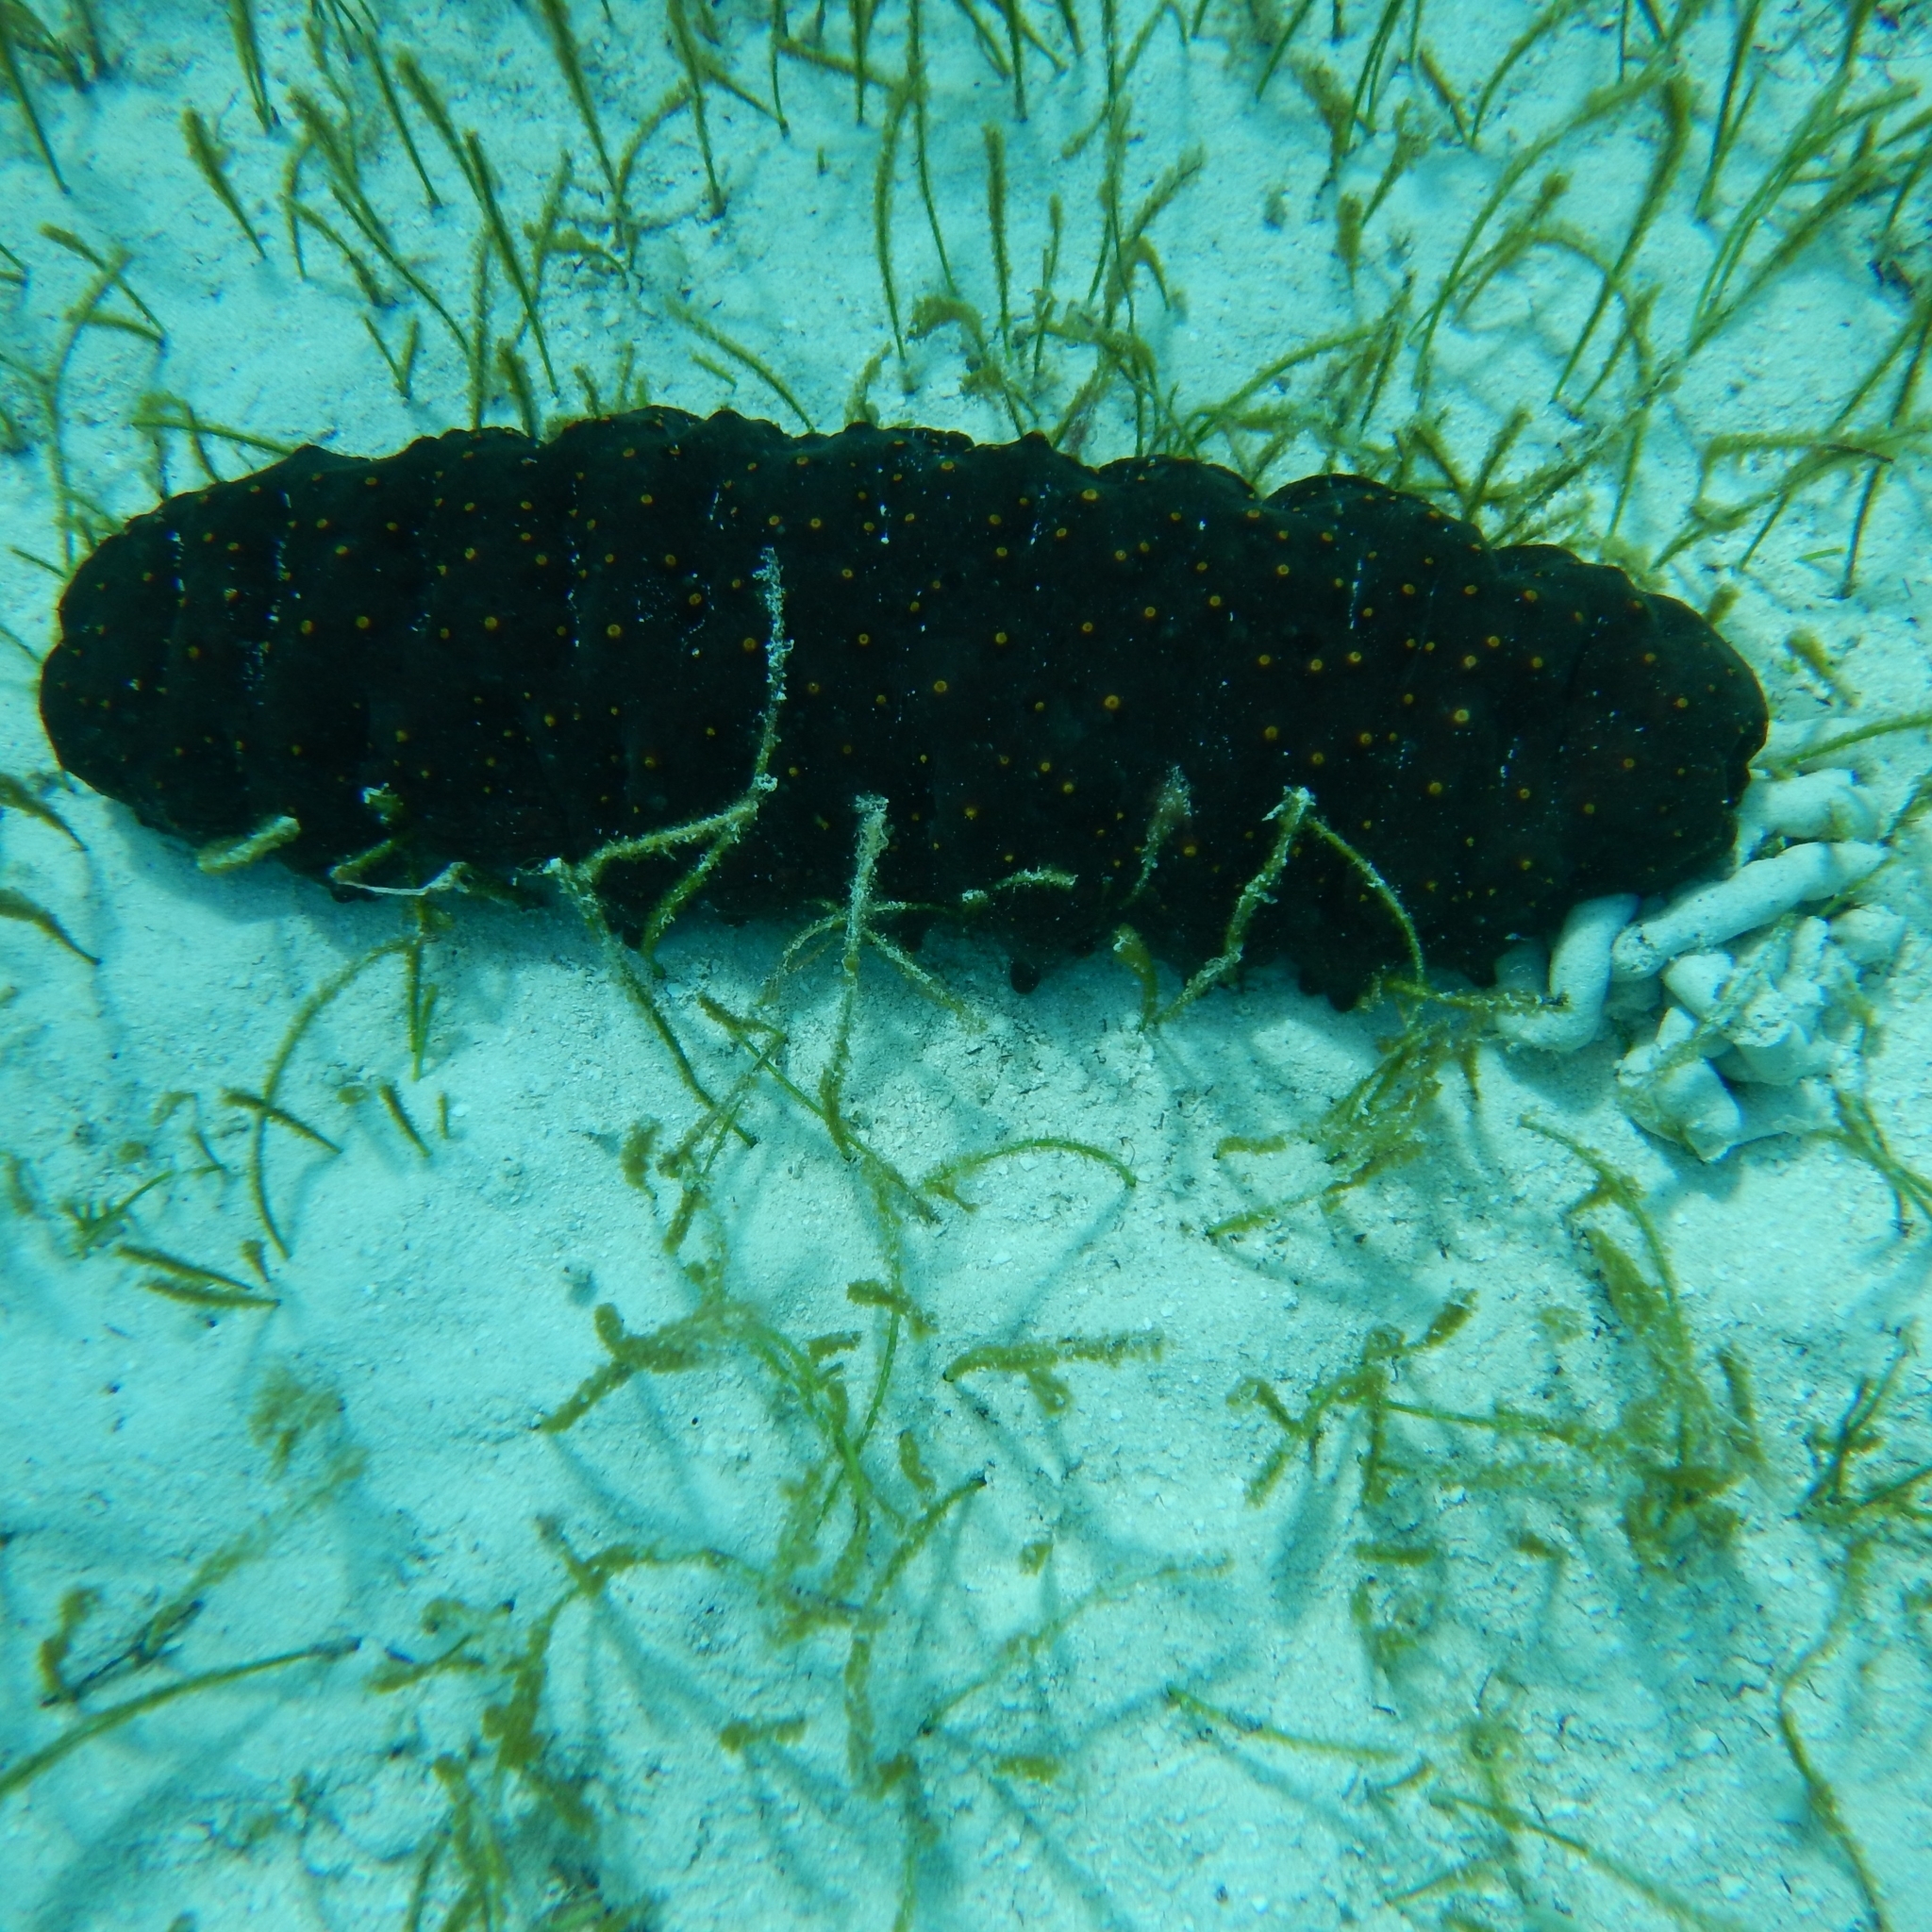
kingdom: Animalia
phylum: Echinodermata
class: Holothuroidea
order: Synallactida
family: Stichopodidae
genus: Isostichopus
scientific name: Isostichopus badionotus
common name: Chocolate chip cucumber
